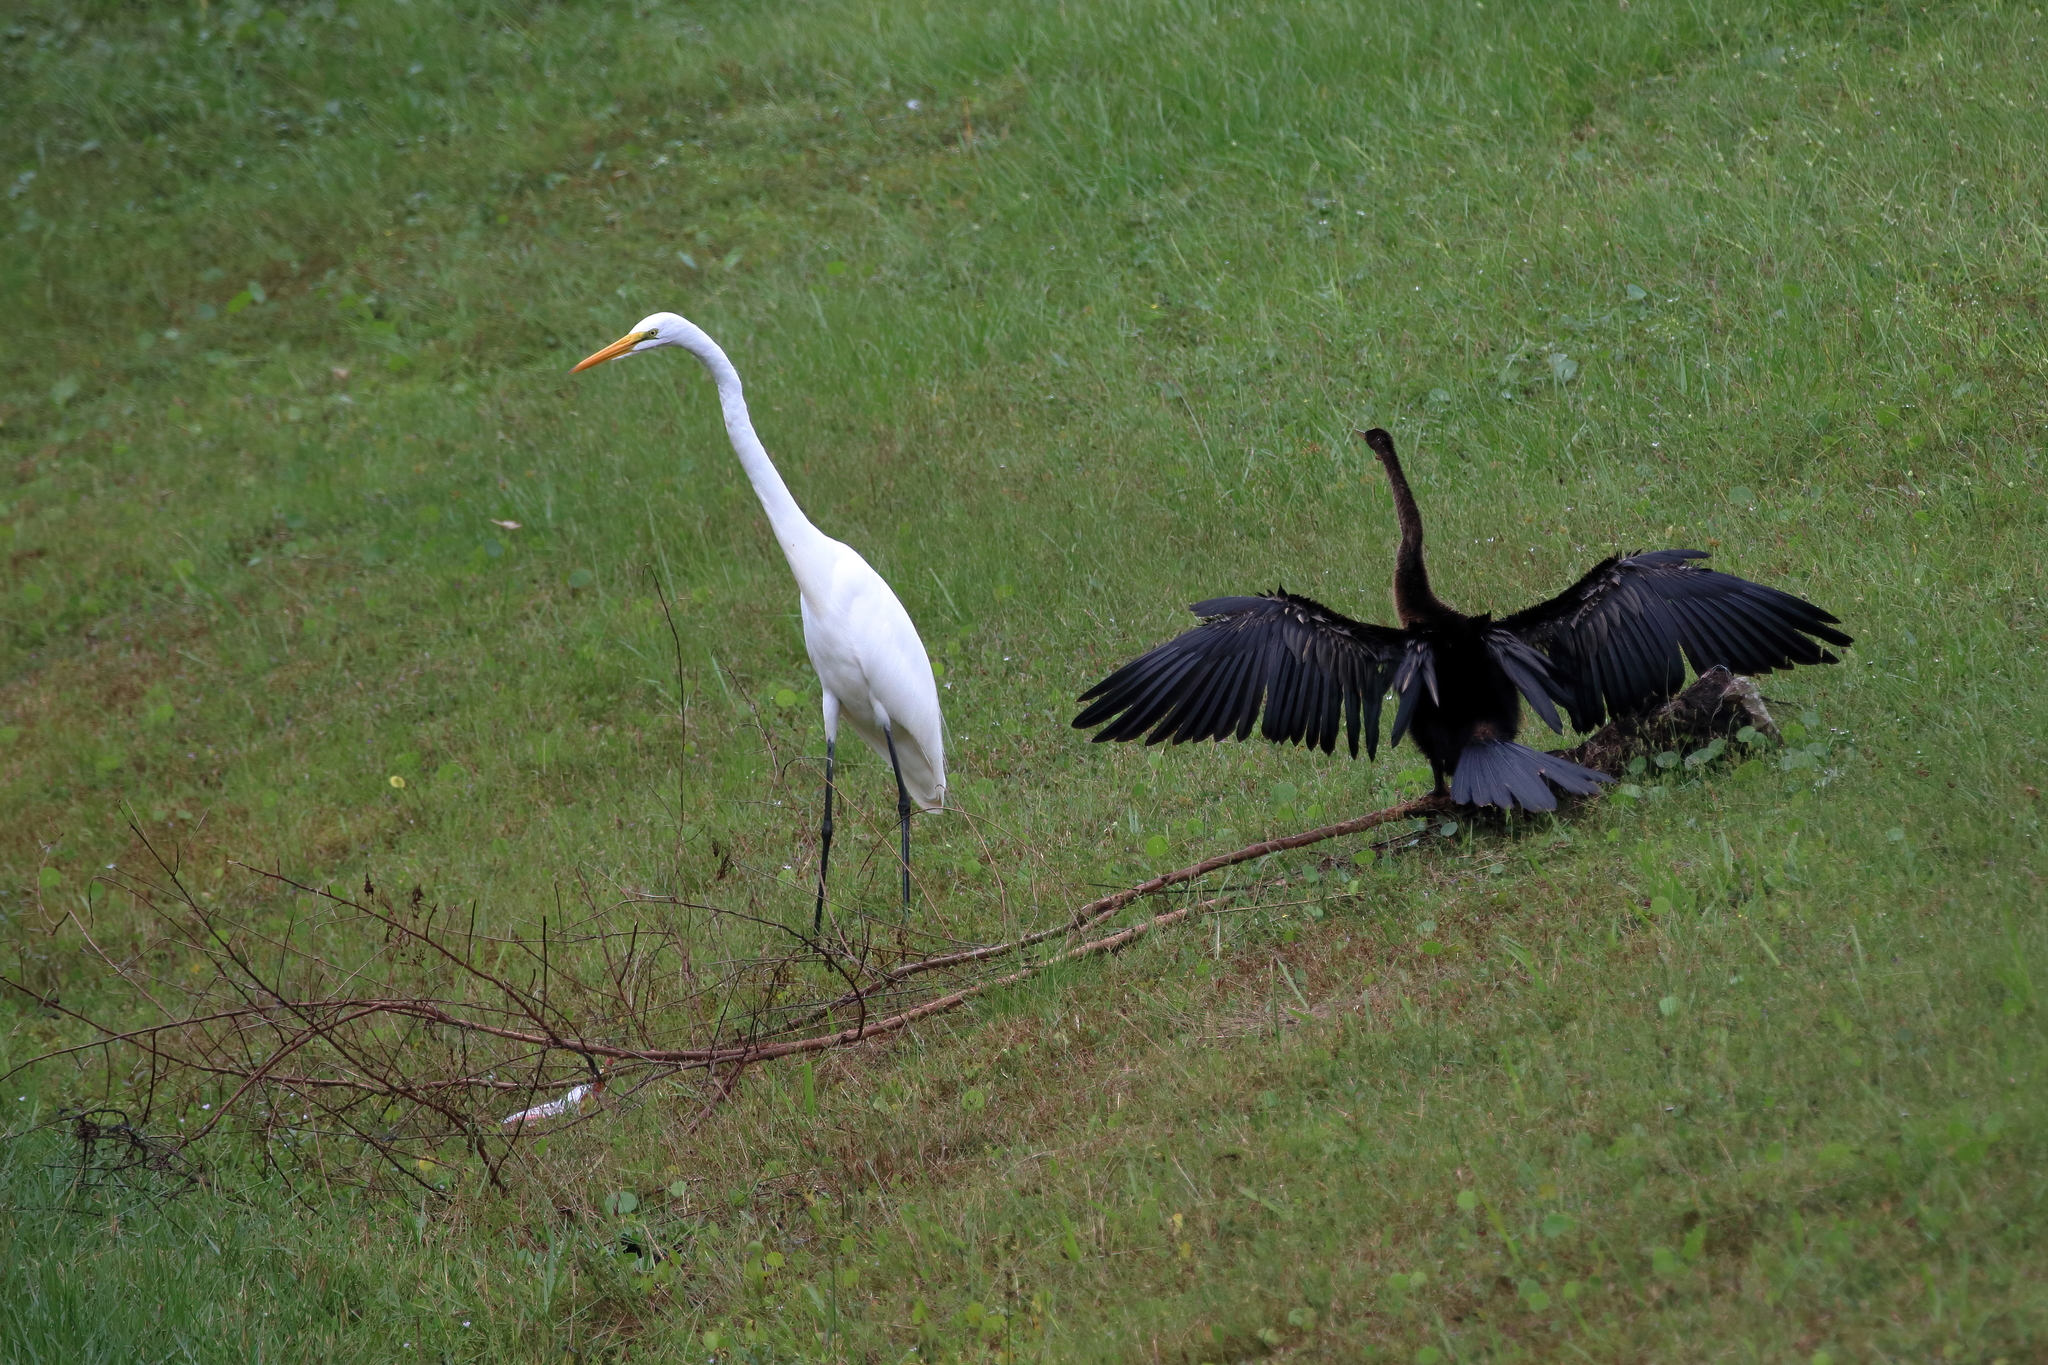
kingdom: Animalia
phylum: Chordata
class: Aves
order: Suliformes
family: Anhingidae
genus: Anhinga
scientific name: Anhinga anhinga
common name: Anhinga
